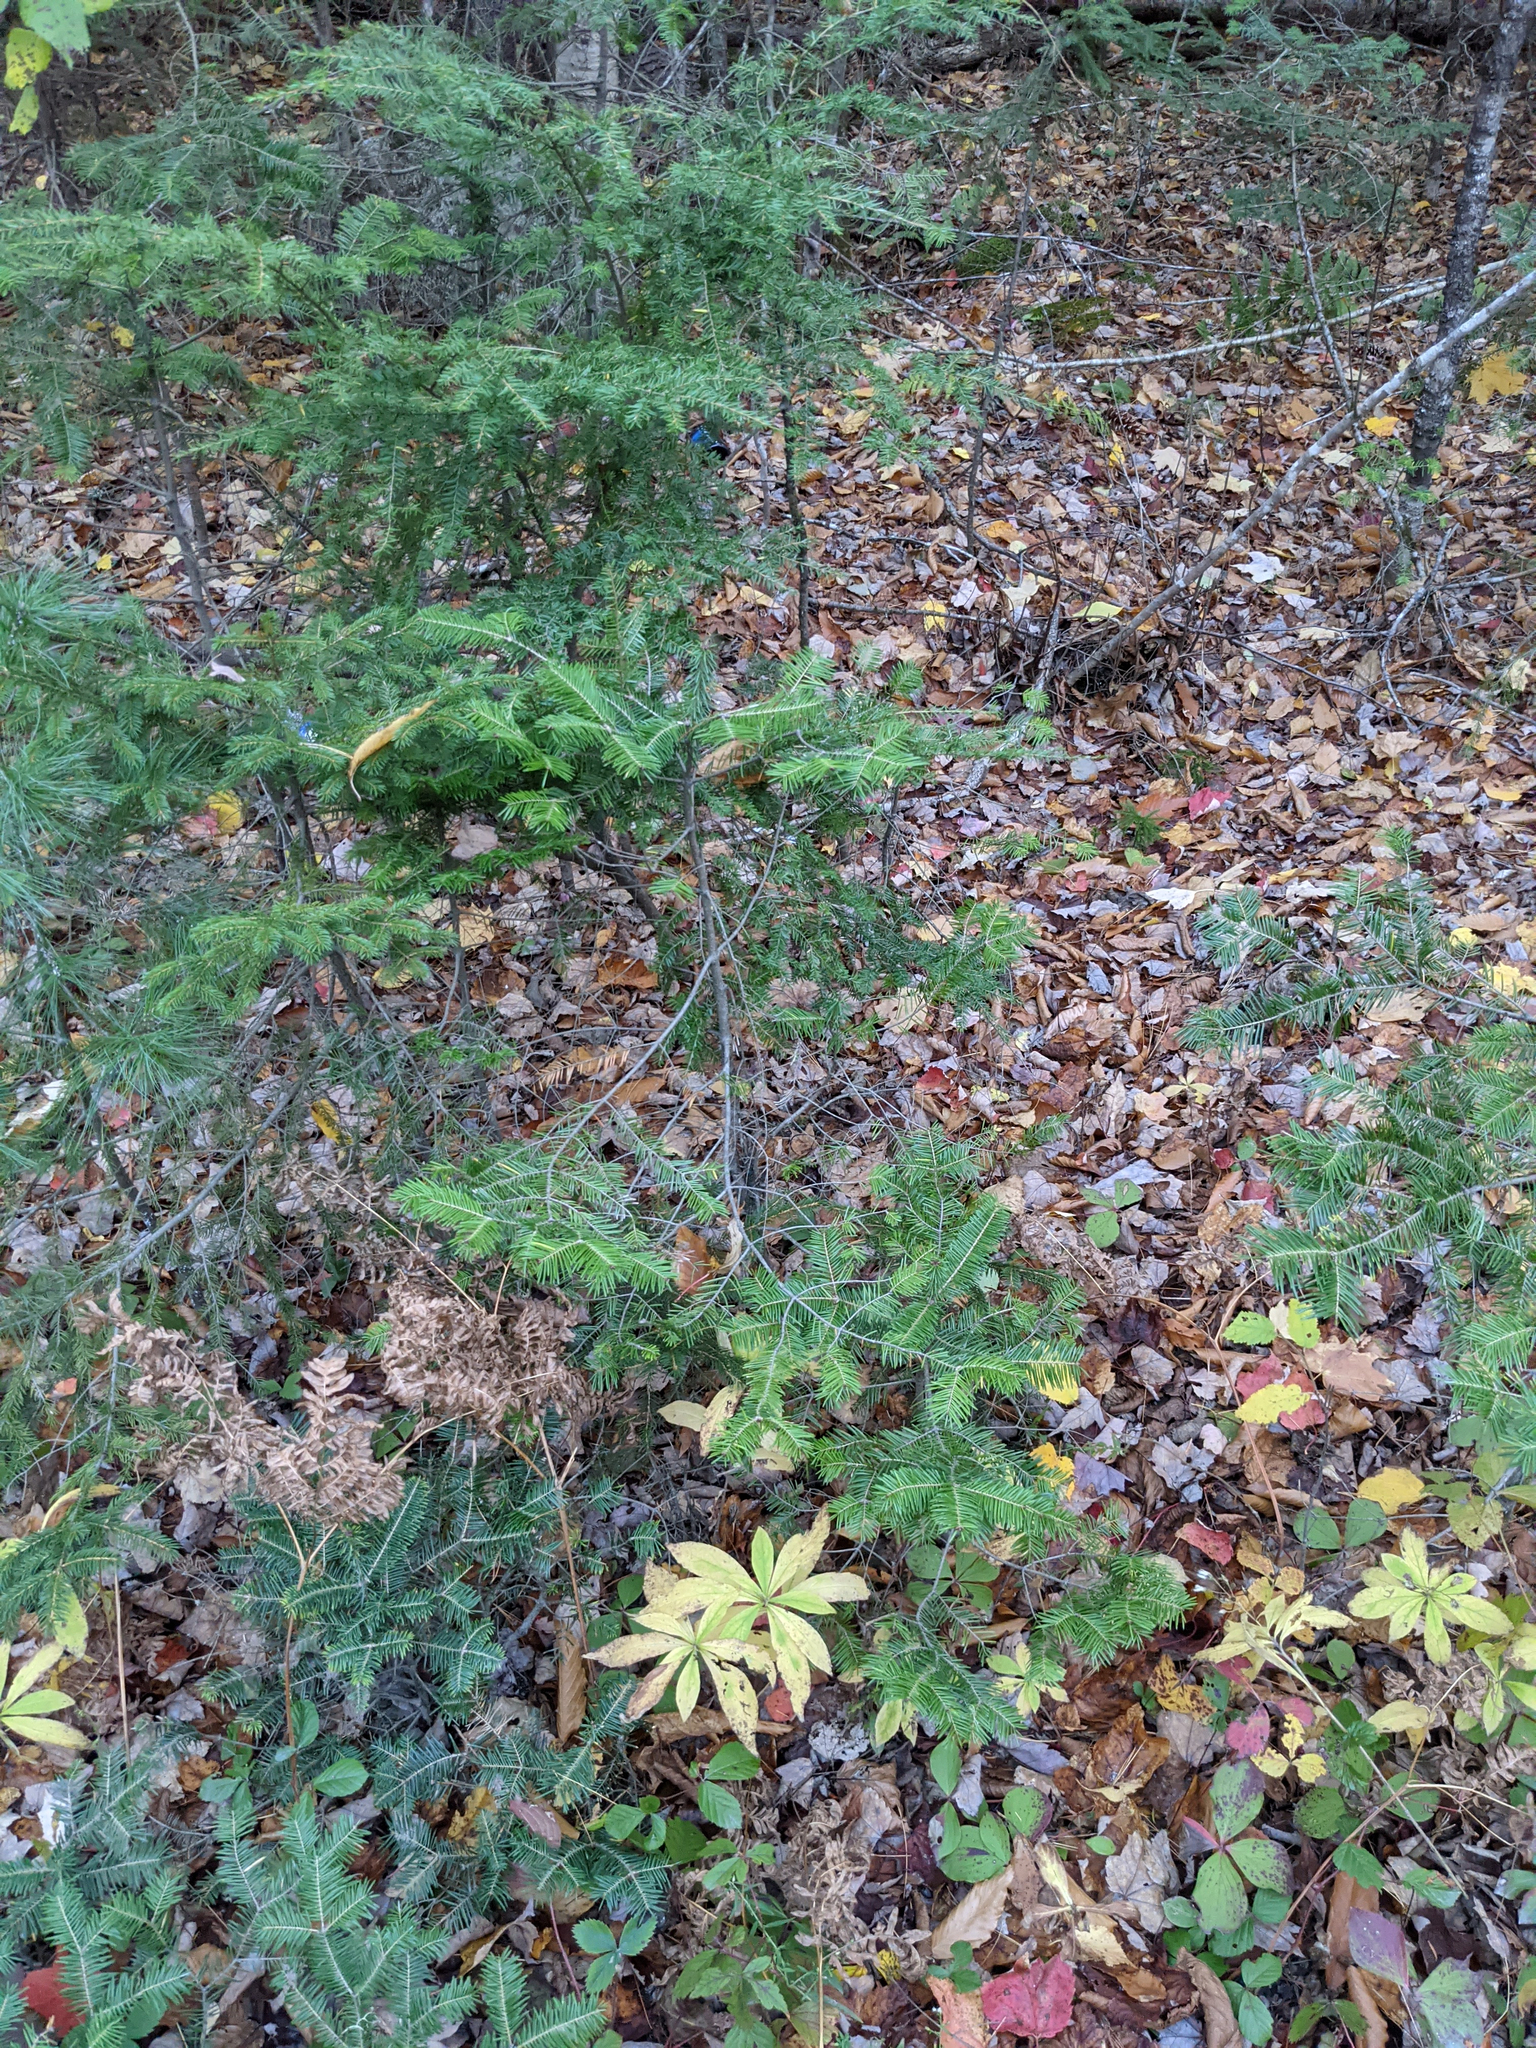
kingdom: Plantae
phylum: Tracheophyta
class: Pinopsida
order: Pinales
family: Pinaceae
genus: Abies
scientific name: Abies balsamea
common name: Balsam fir
